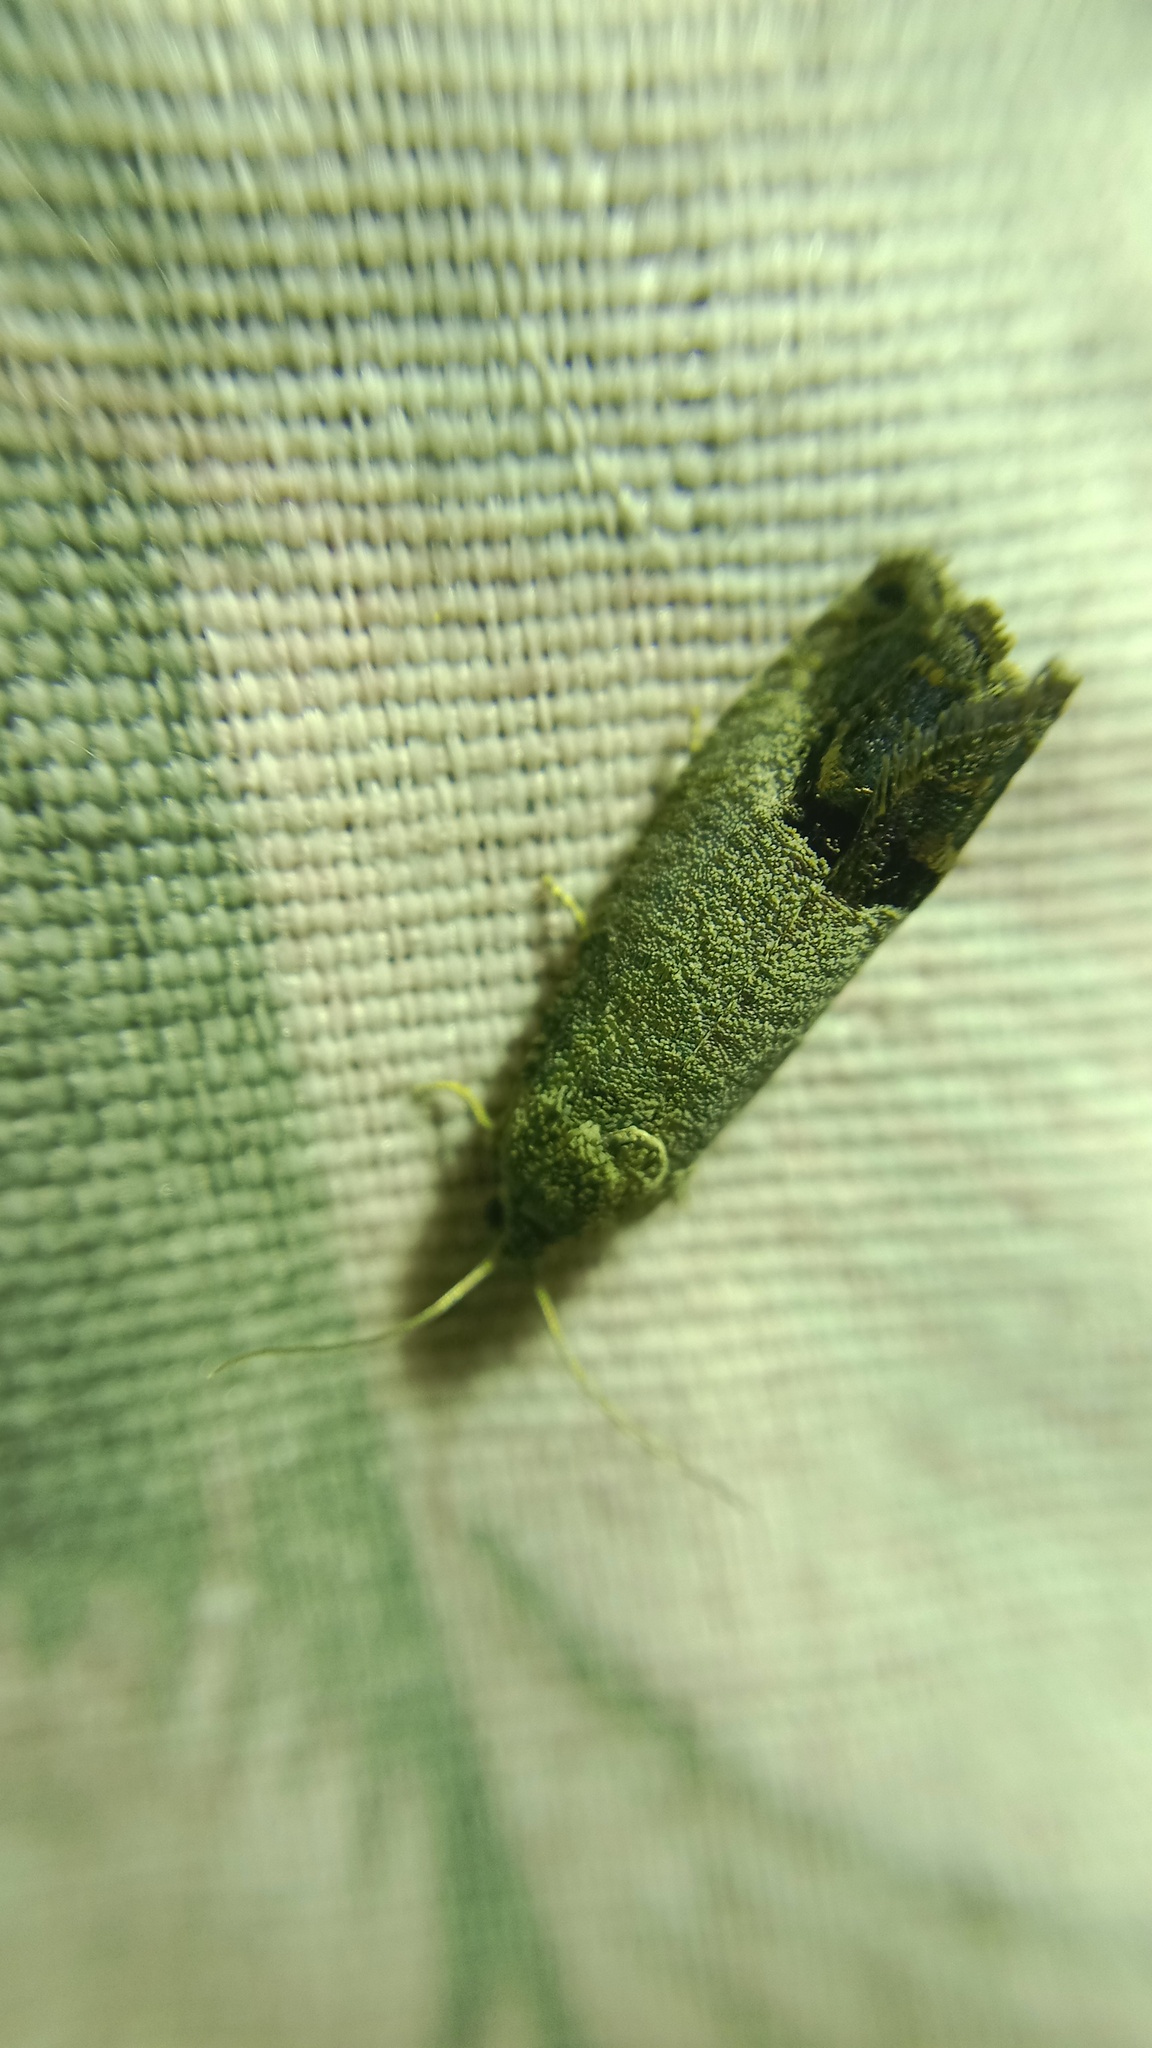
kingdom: Animalia
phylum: Arthropoda
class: Insecta
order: Lepidoptera
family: Tortricidae
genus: Cydia
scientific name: Cydia pomonella
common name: Codling moth
